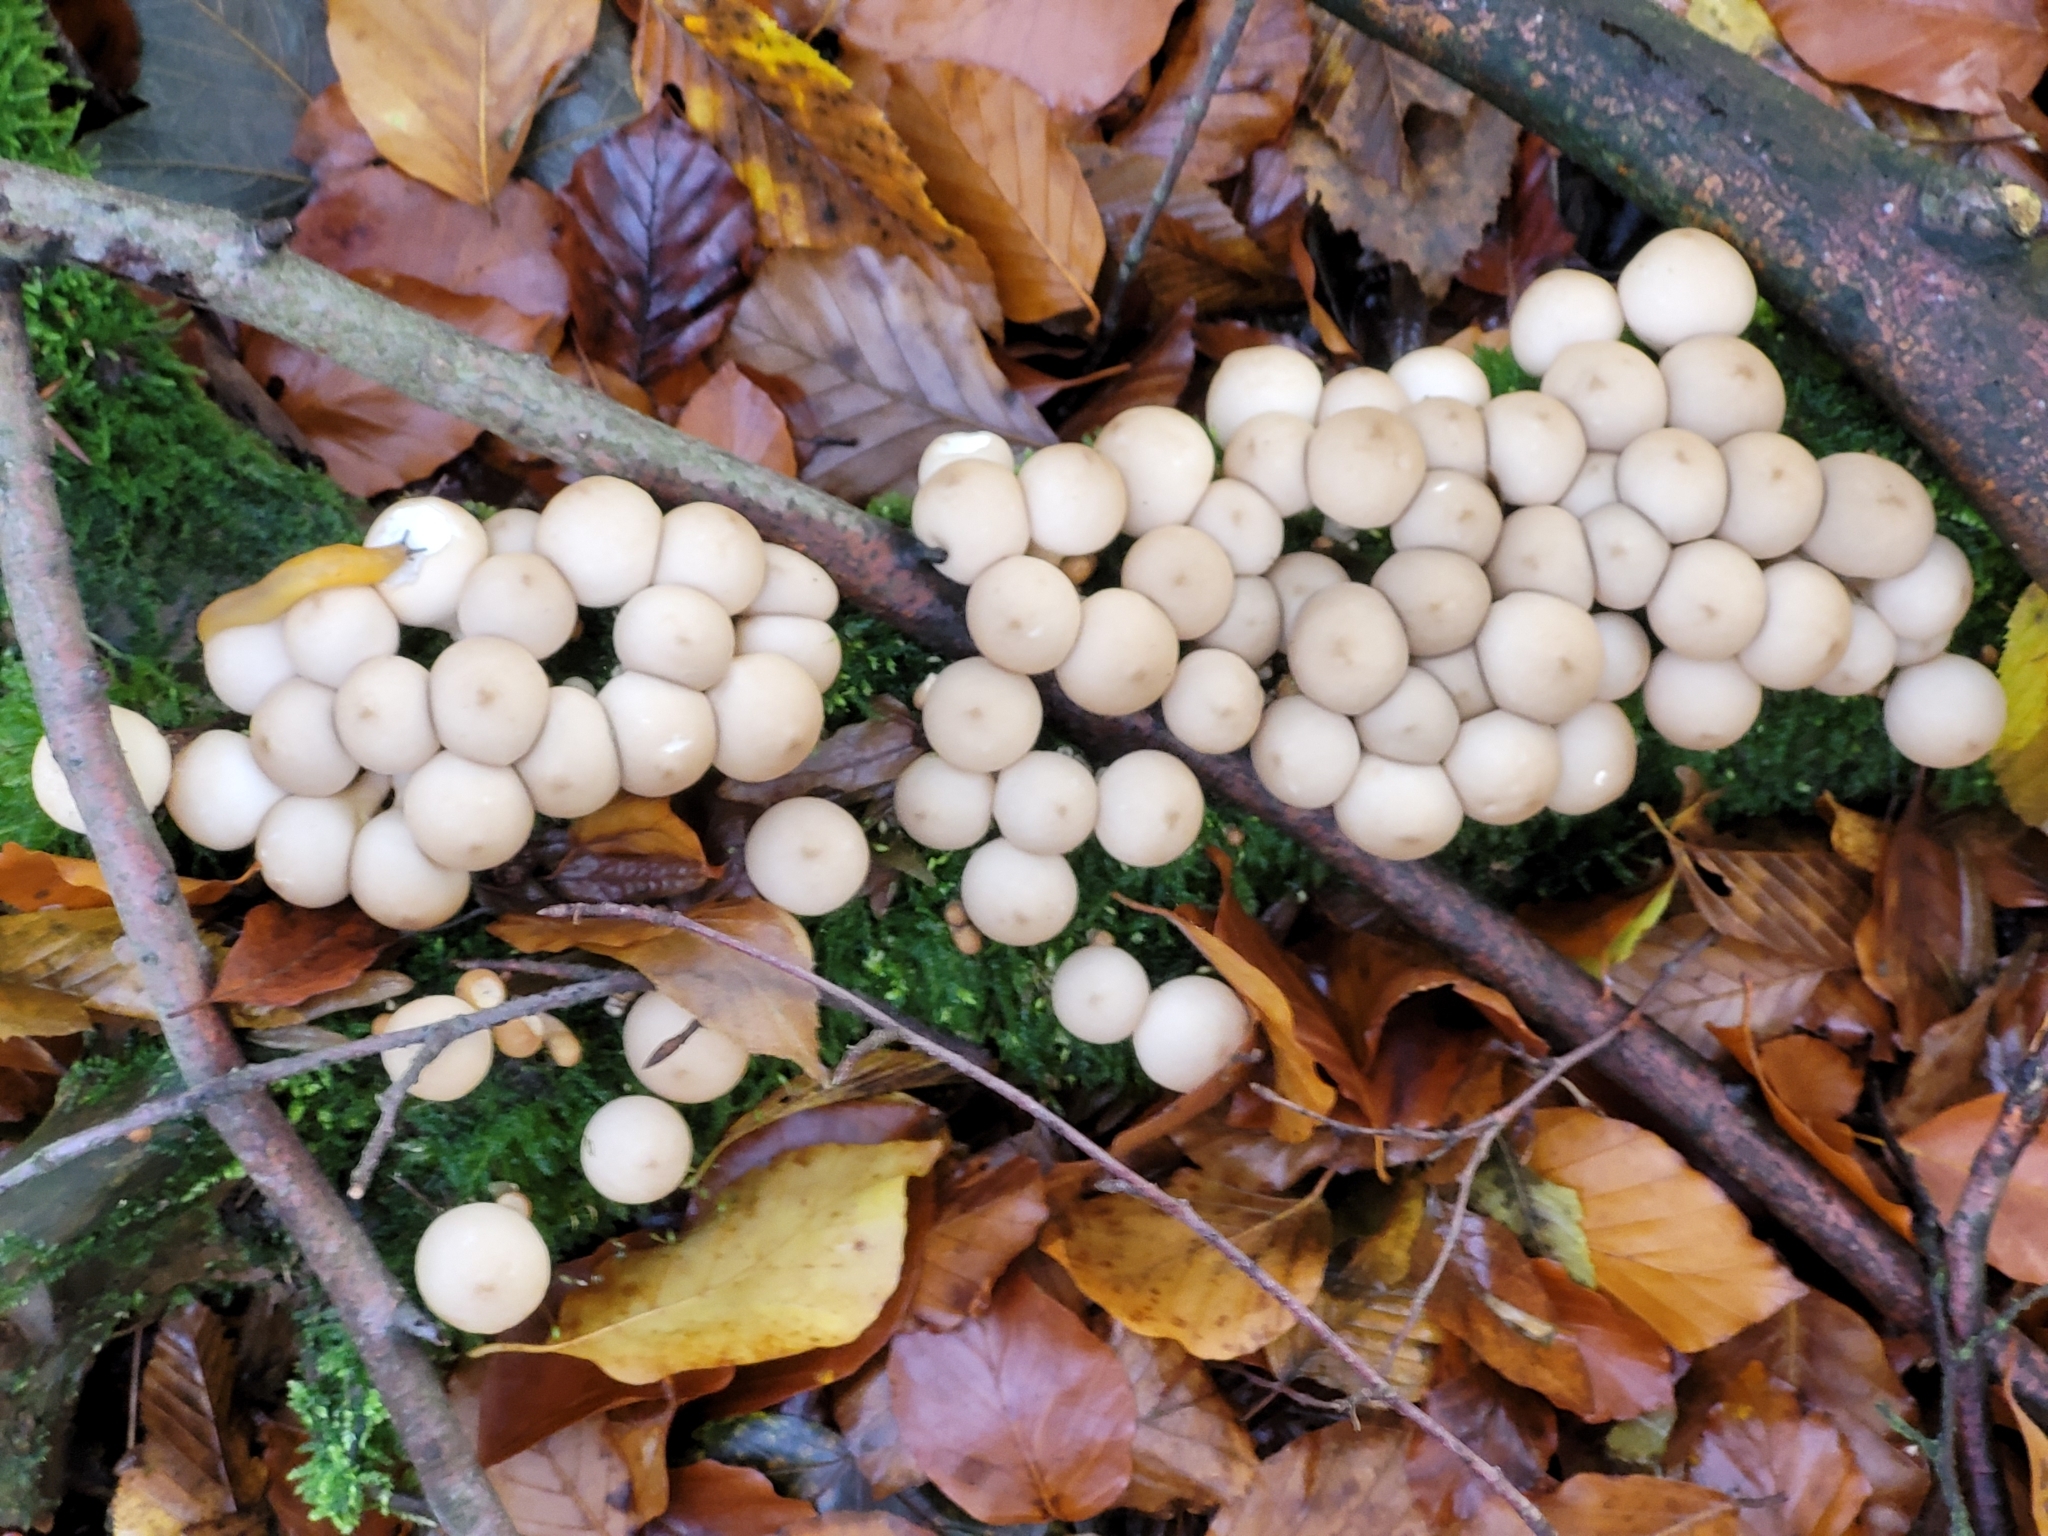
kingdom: Fungi
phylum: Basidiomycota
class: Agaricomycetes
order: Agaricales
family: Lycoperdaceae
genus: Apioperdon
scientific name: Apioperdon pyriforme
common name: Pear-shaped puffball
